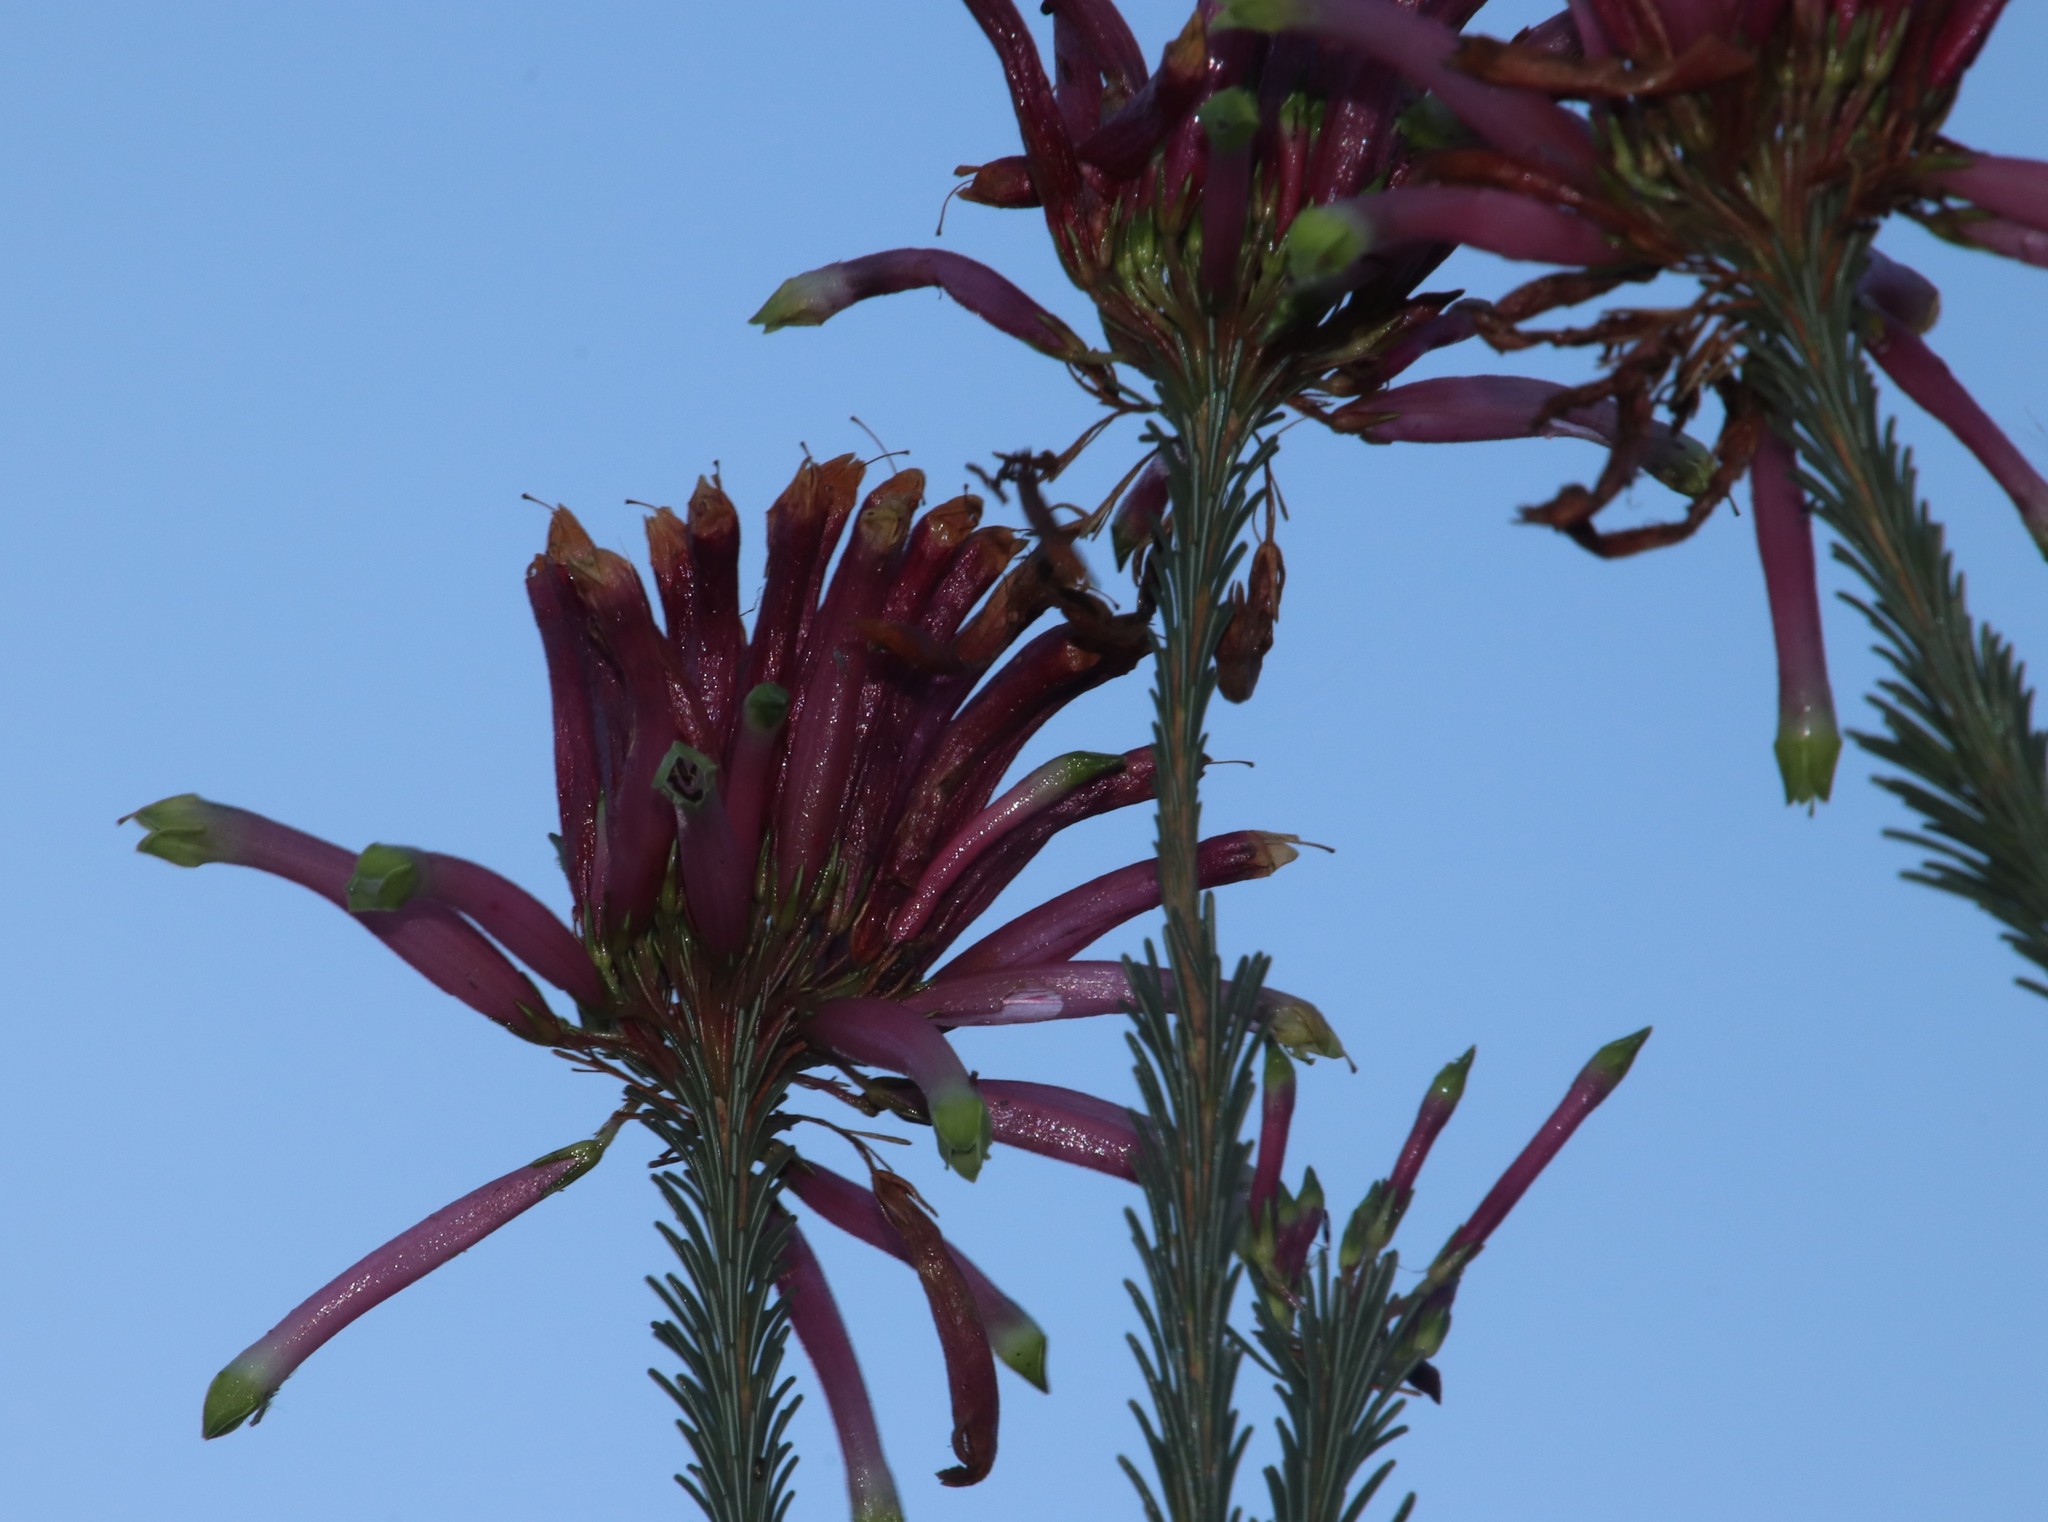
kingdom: Plantae
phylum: Tracheophyta
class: Magnoliopsida
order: Ericales
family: Ericaceae
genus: Erica
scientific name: Erica fascicularis
